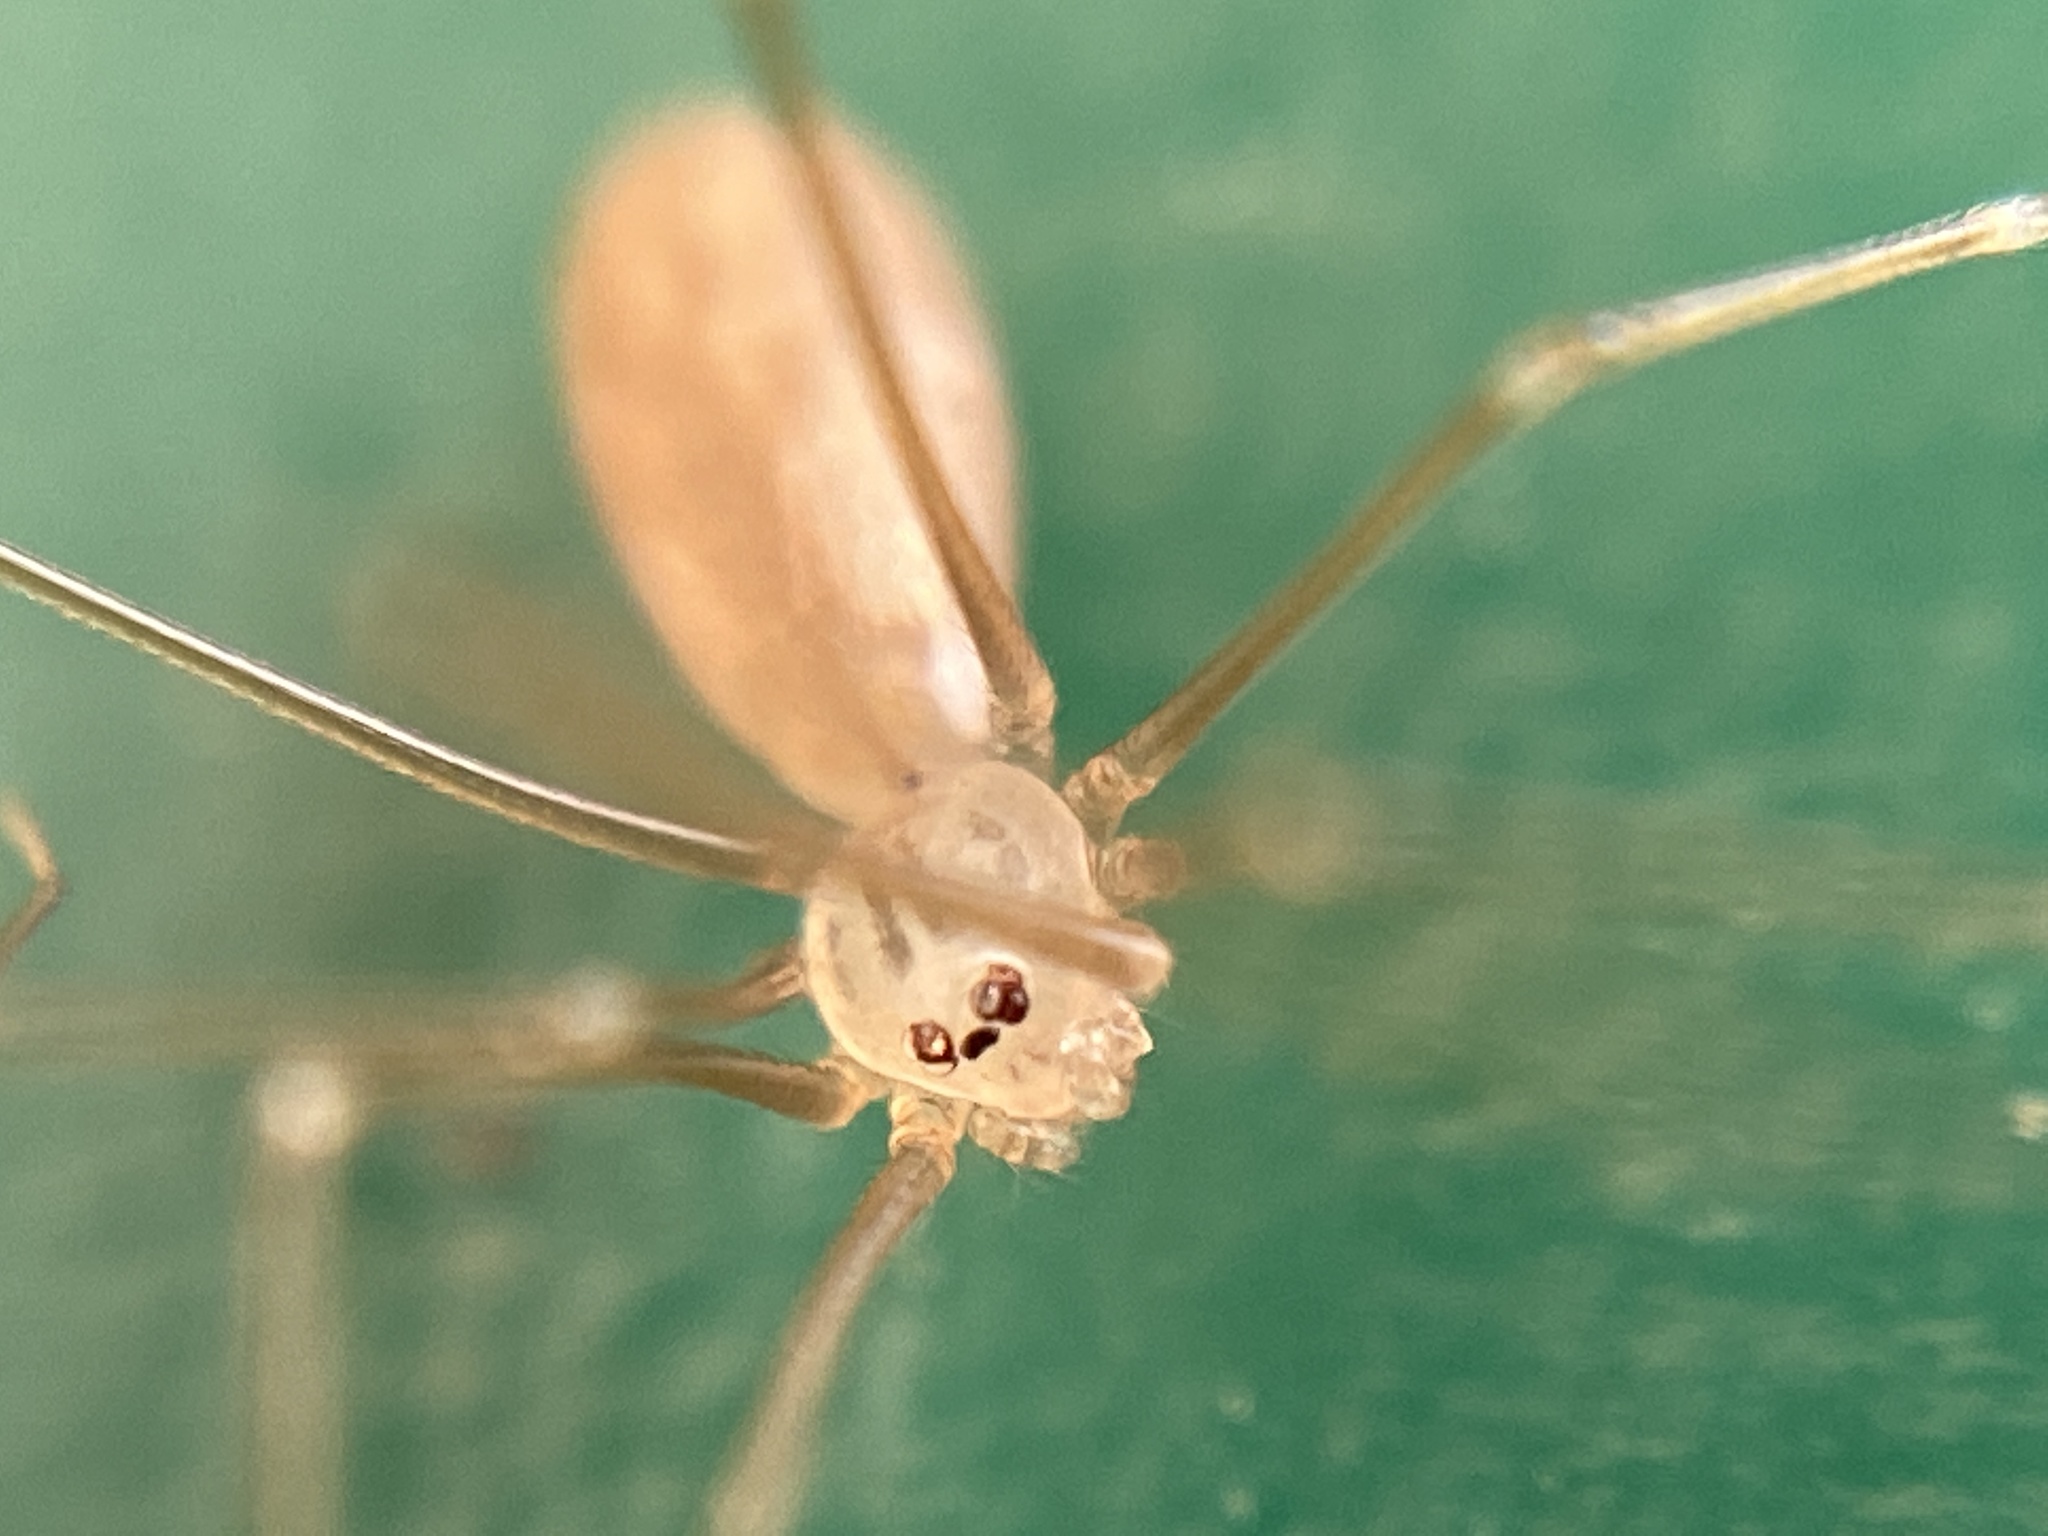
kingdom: Animalia
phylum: Arthropoda
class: Arachnida
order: Araneae
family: Pholcidae
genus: Pholcus
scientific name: Pholcus opilionoides
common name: Daddylongleg spider
